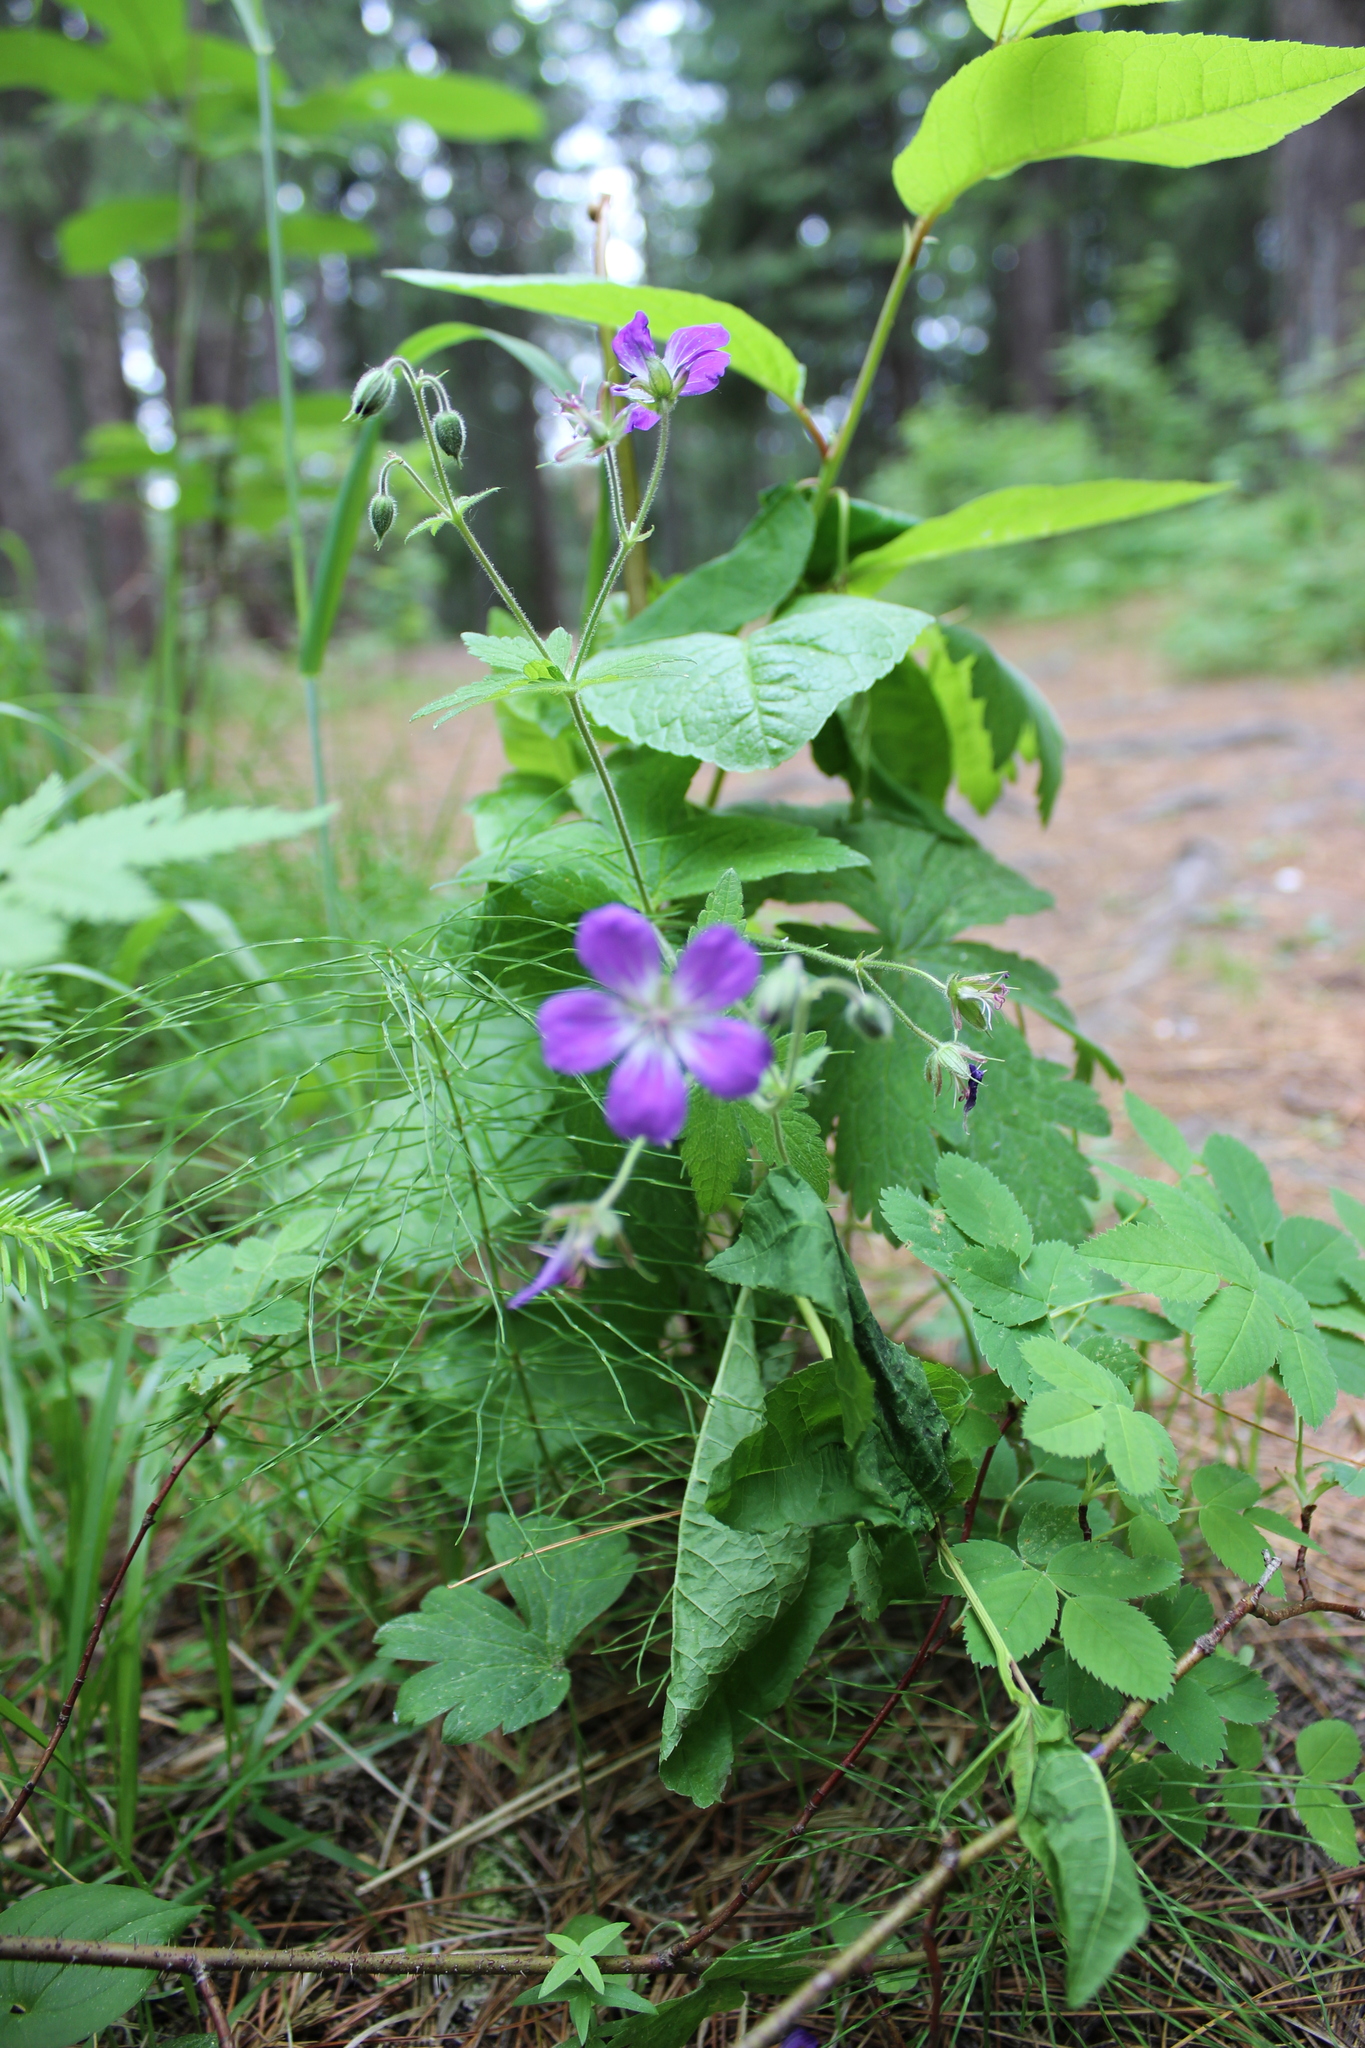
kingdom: Plantae
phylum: Tracheophyta
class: Magnoliopsida
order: Geraniales
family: Geraniaceae
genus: Geranium
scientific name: Geranium sylvaticum
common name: Wood crane's-bill
